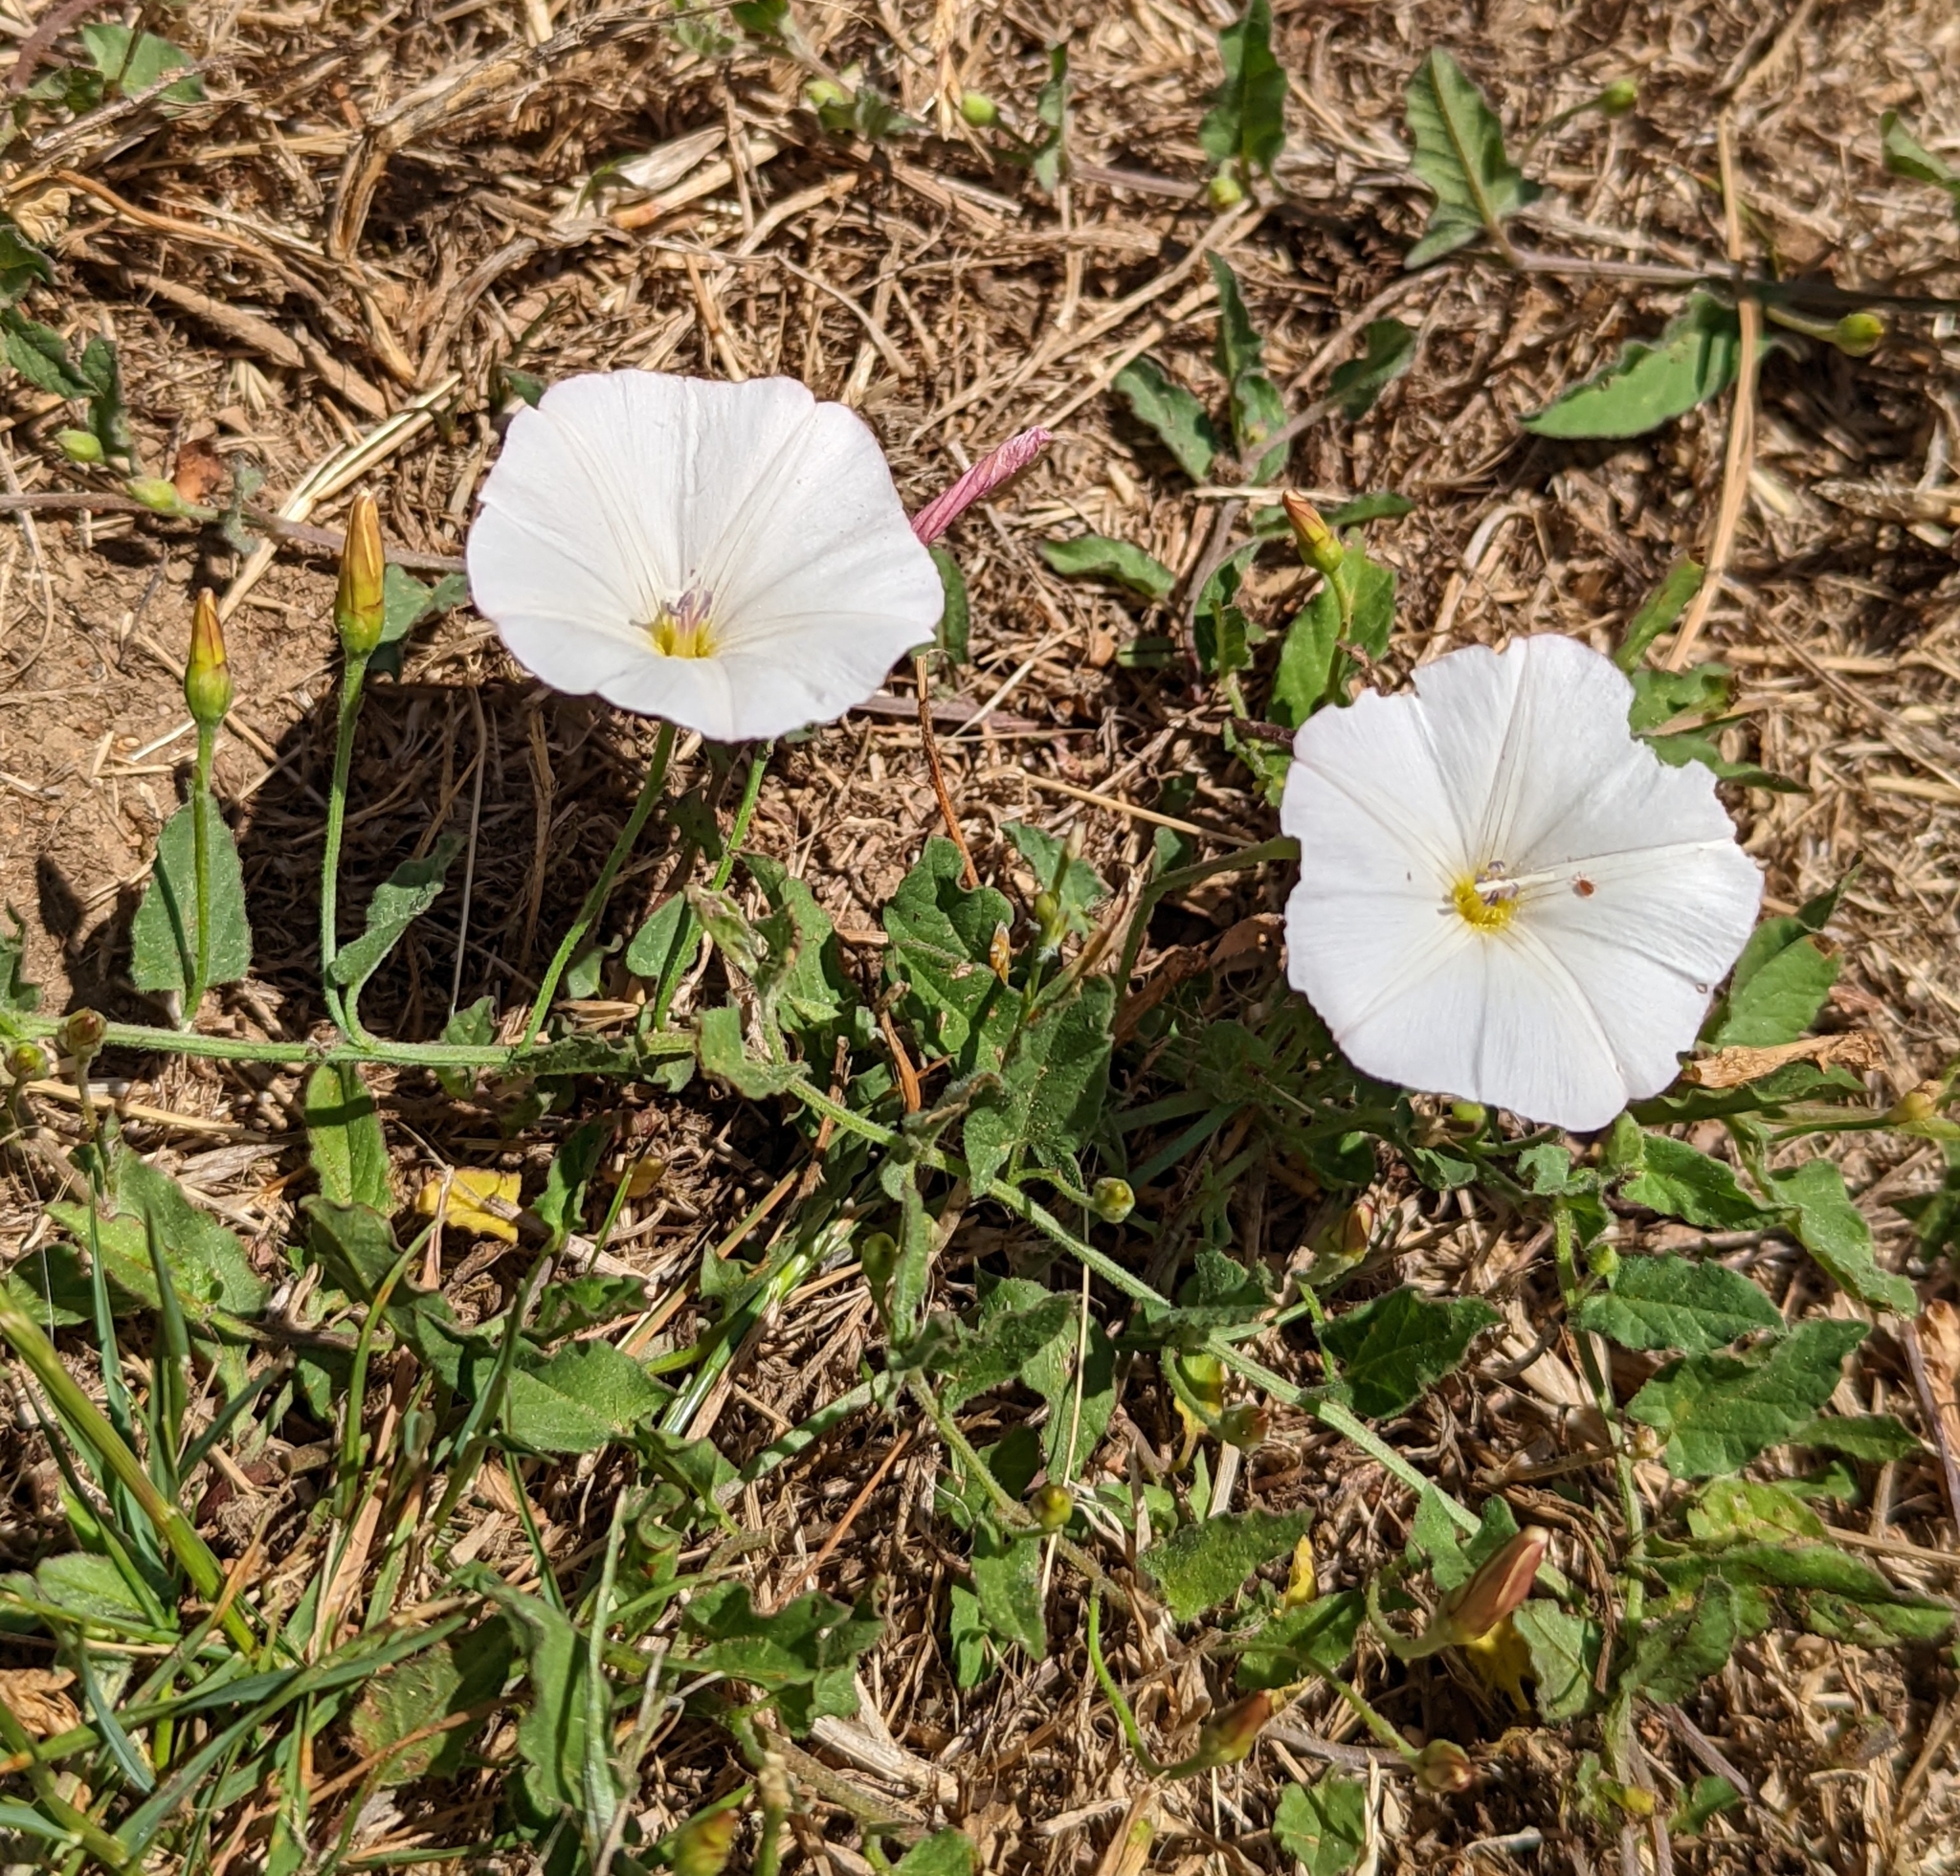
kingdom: Plantae
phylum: Tracheophyta
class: Magnoliopsida
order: Solanales
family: Convolvulaceae
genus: Convolvulus
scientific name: Convolvulus arvensis
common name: Field bindweed
